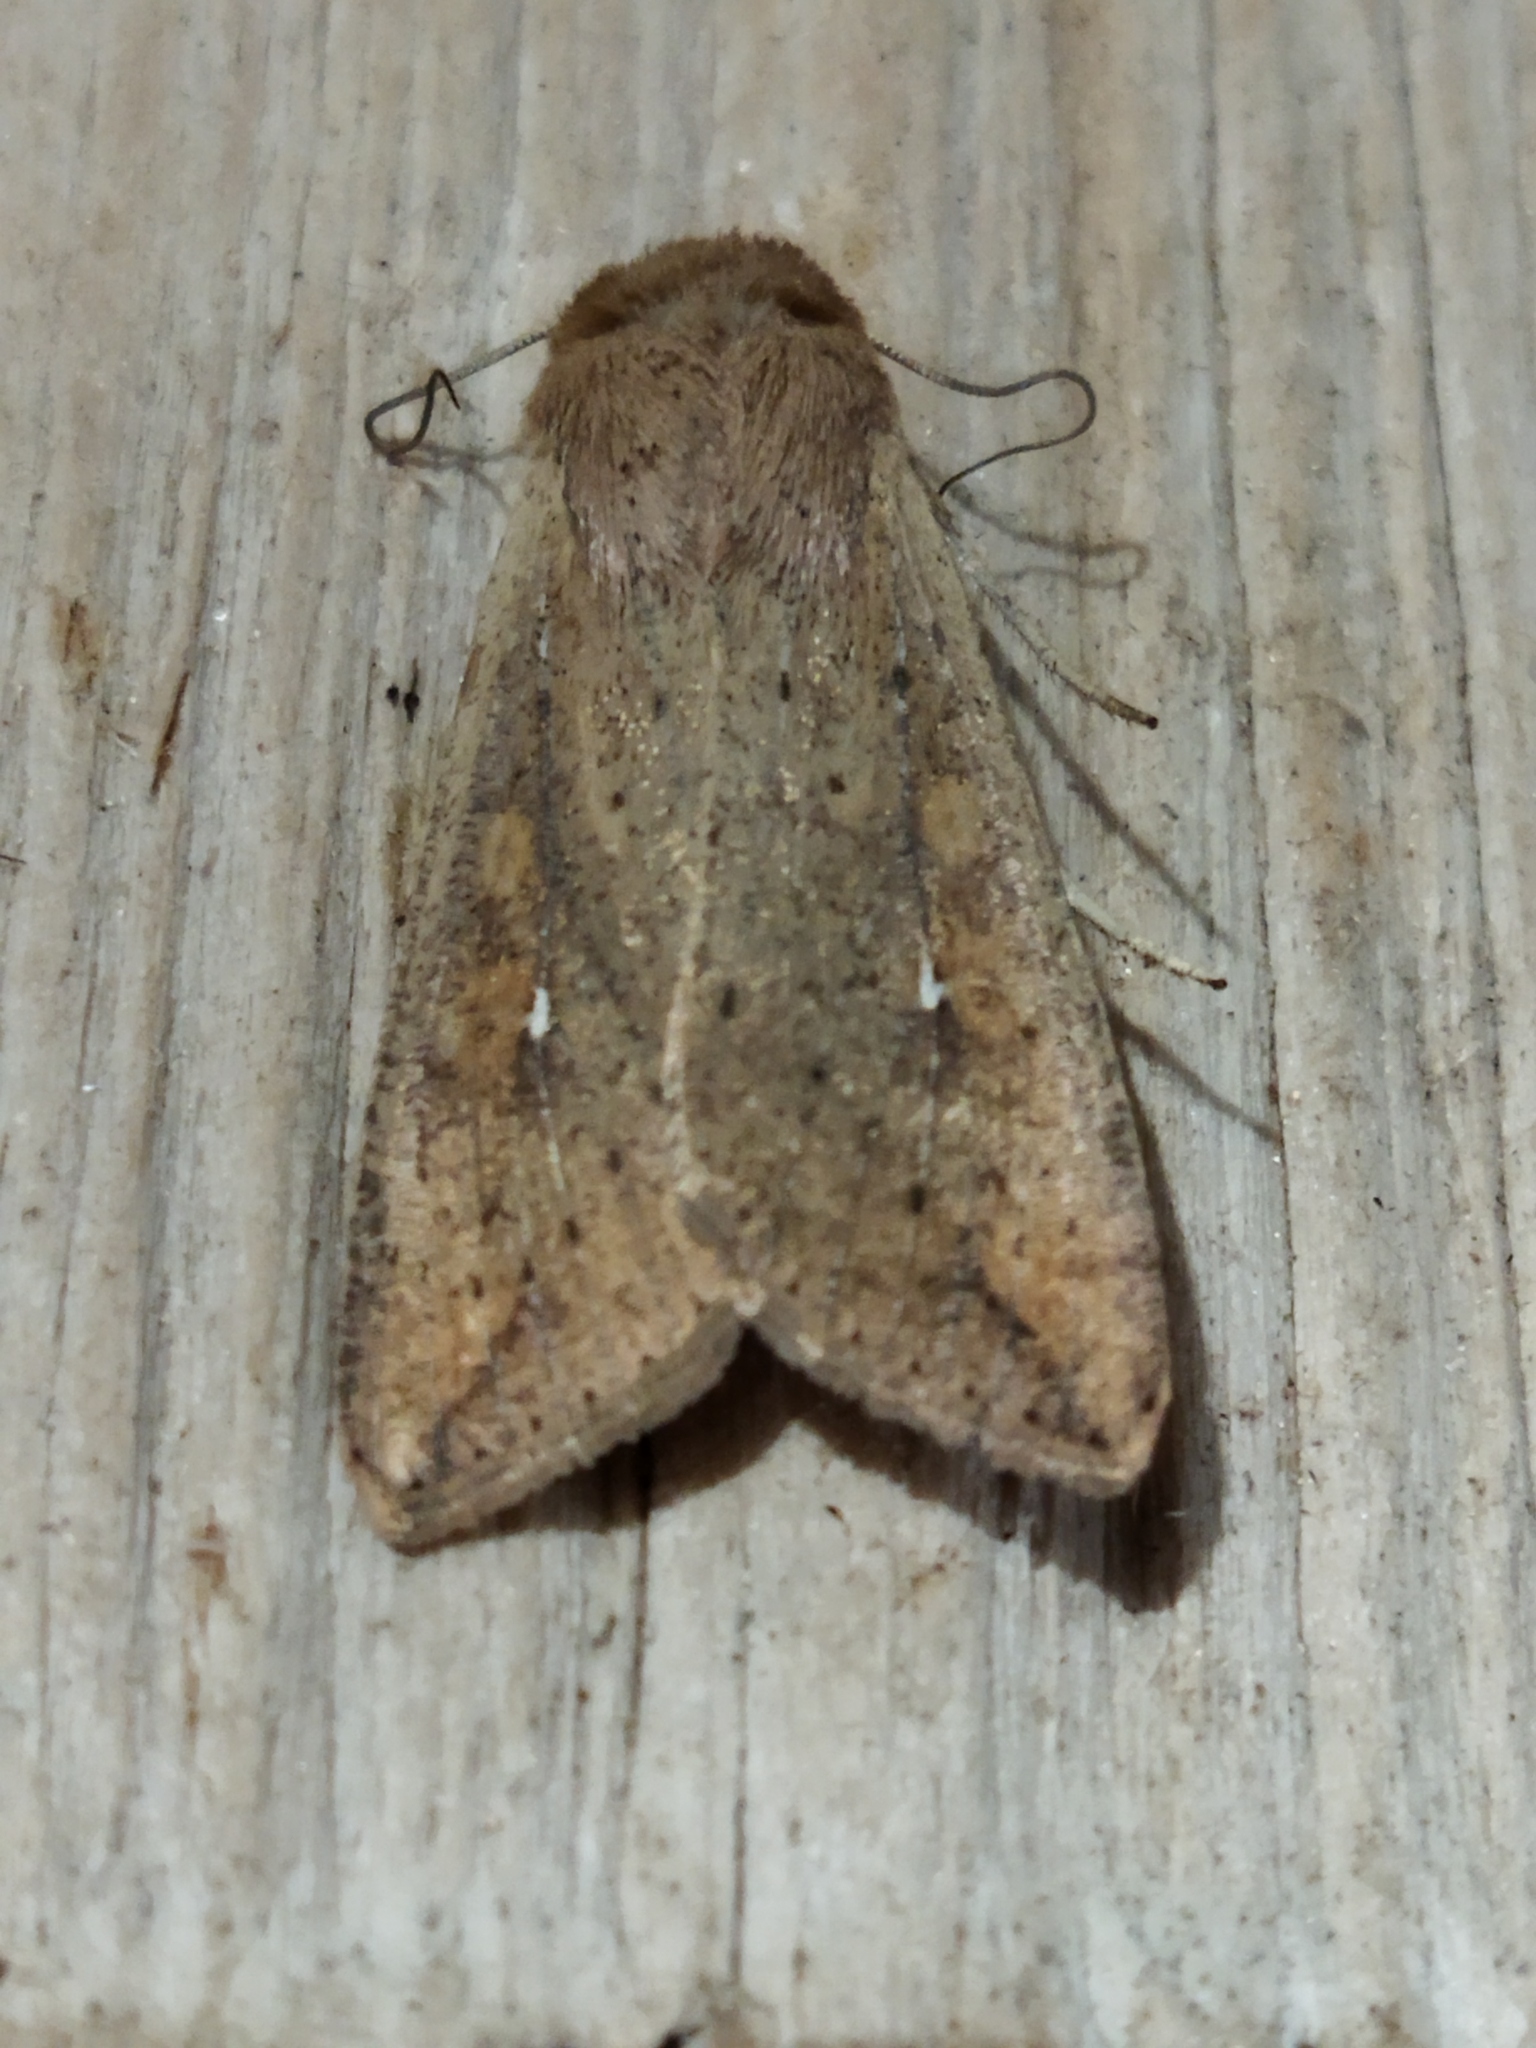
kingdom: Animalia
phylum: Arthropoda
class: Insecta
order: Lepidoptera
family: Noctuidae
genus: Mythimna
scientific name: Mythimna unipuncta
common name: White-speck
